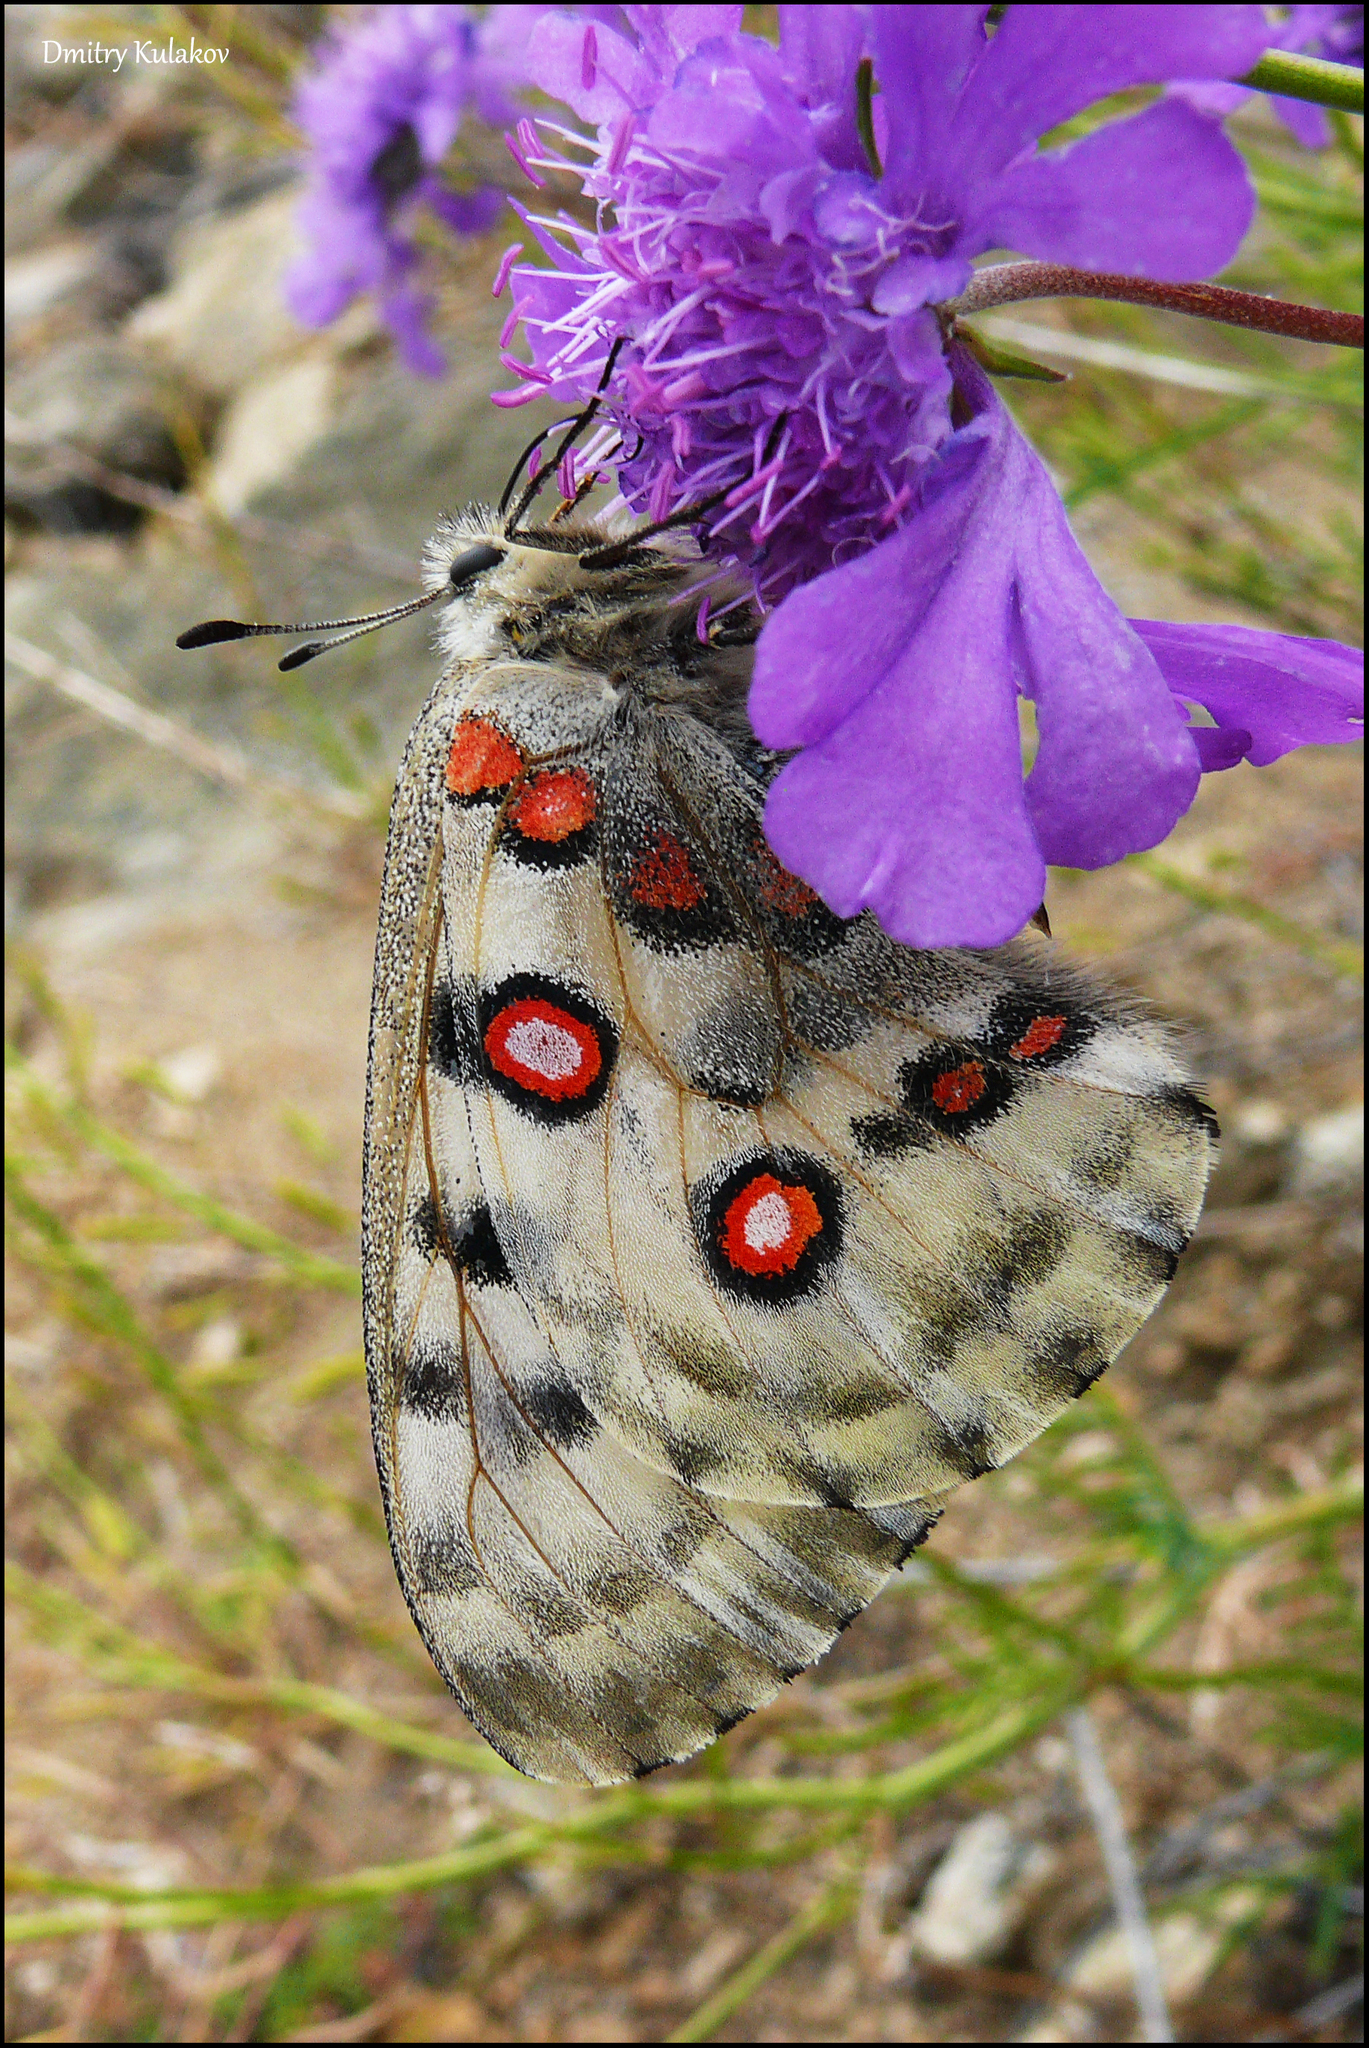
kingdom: Animalia
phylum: Arthropoda
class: Insecta
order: Lepidoptera
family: Papilionidae
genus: Parnassius
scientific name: Parnassius nomion
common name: Nomion apollo
